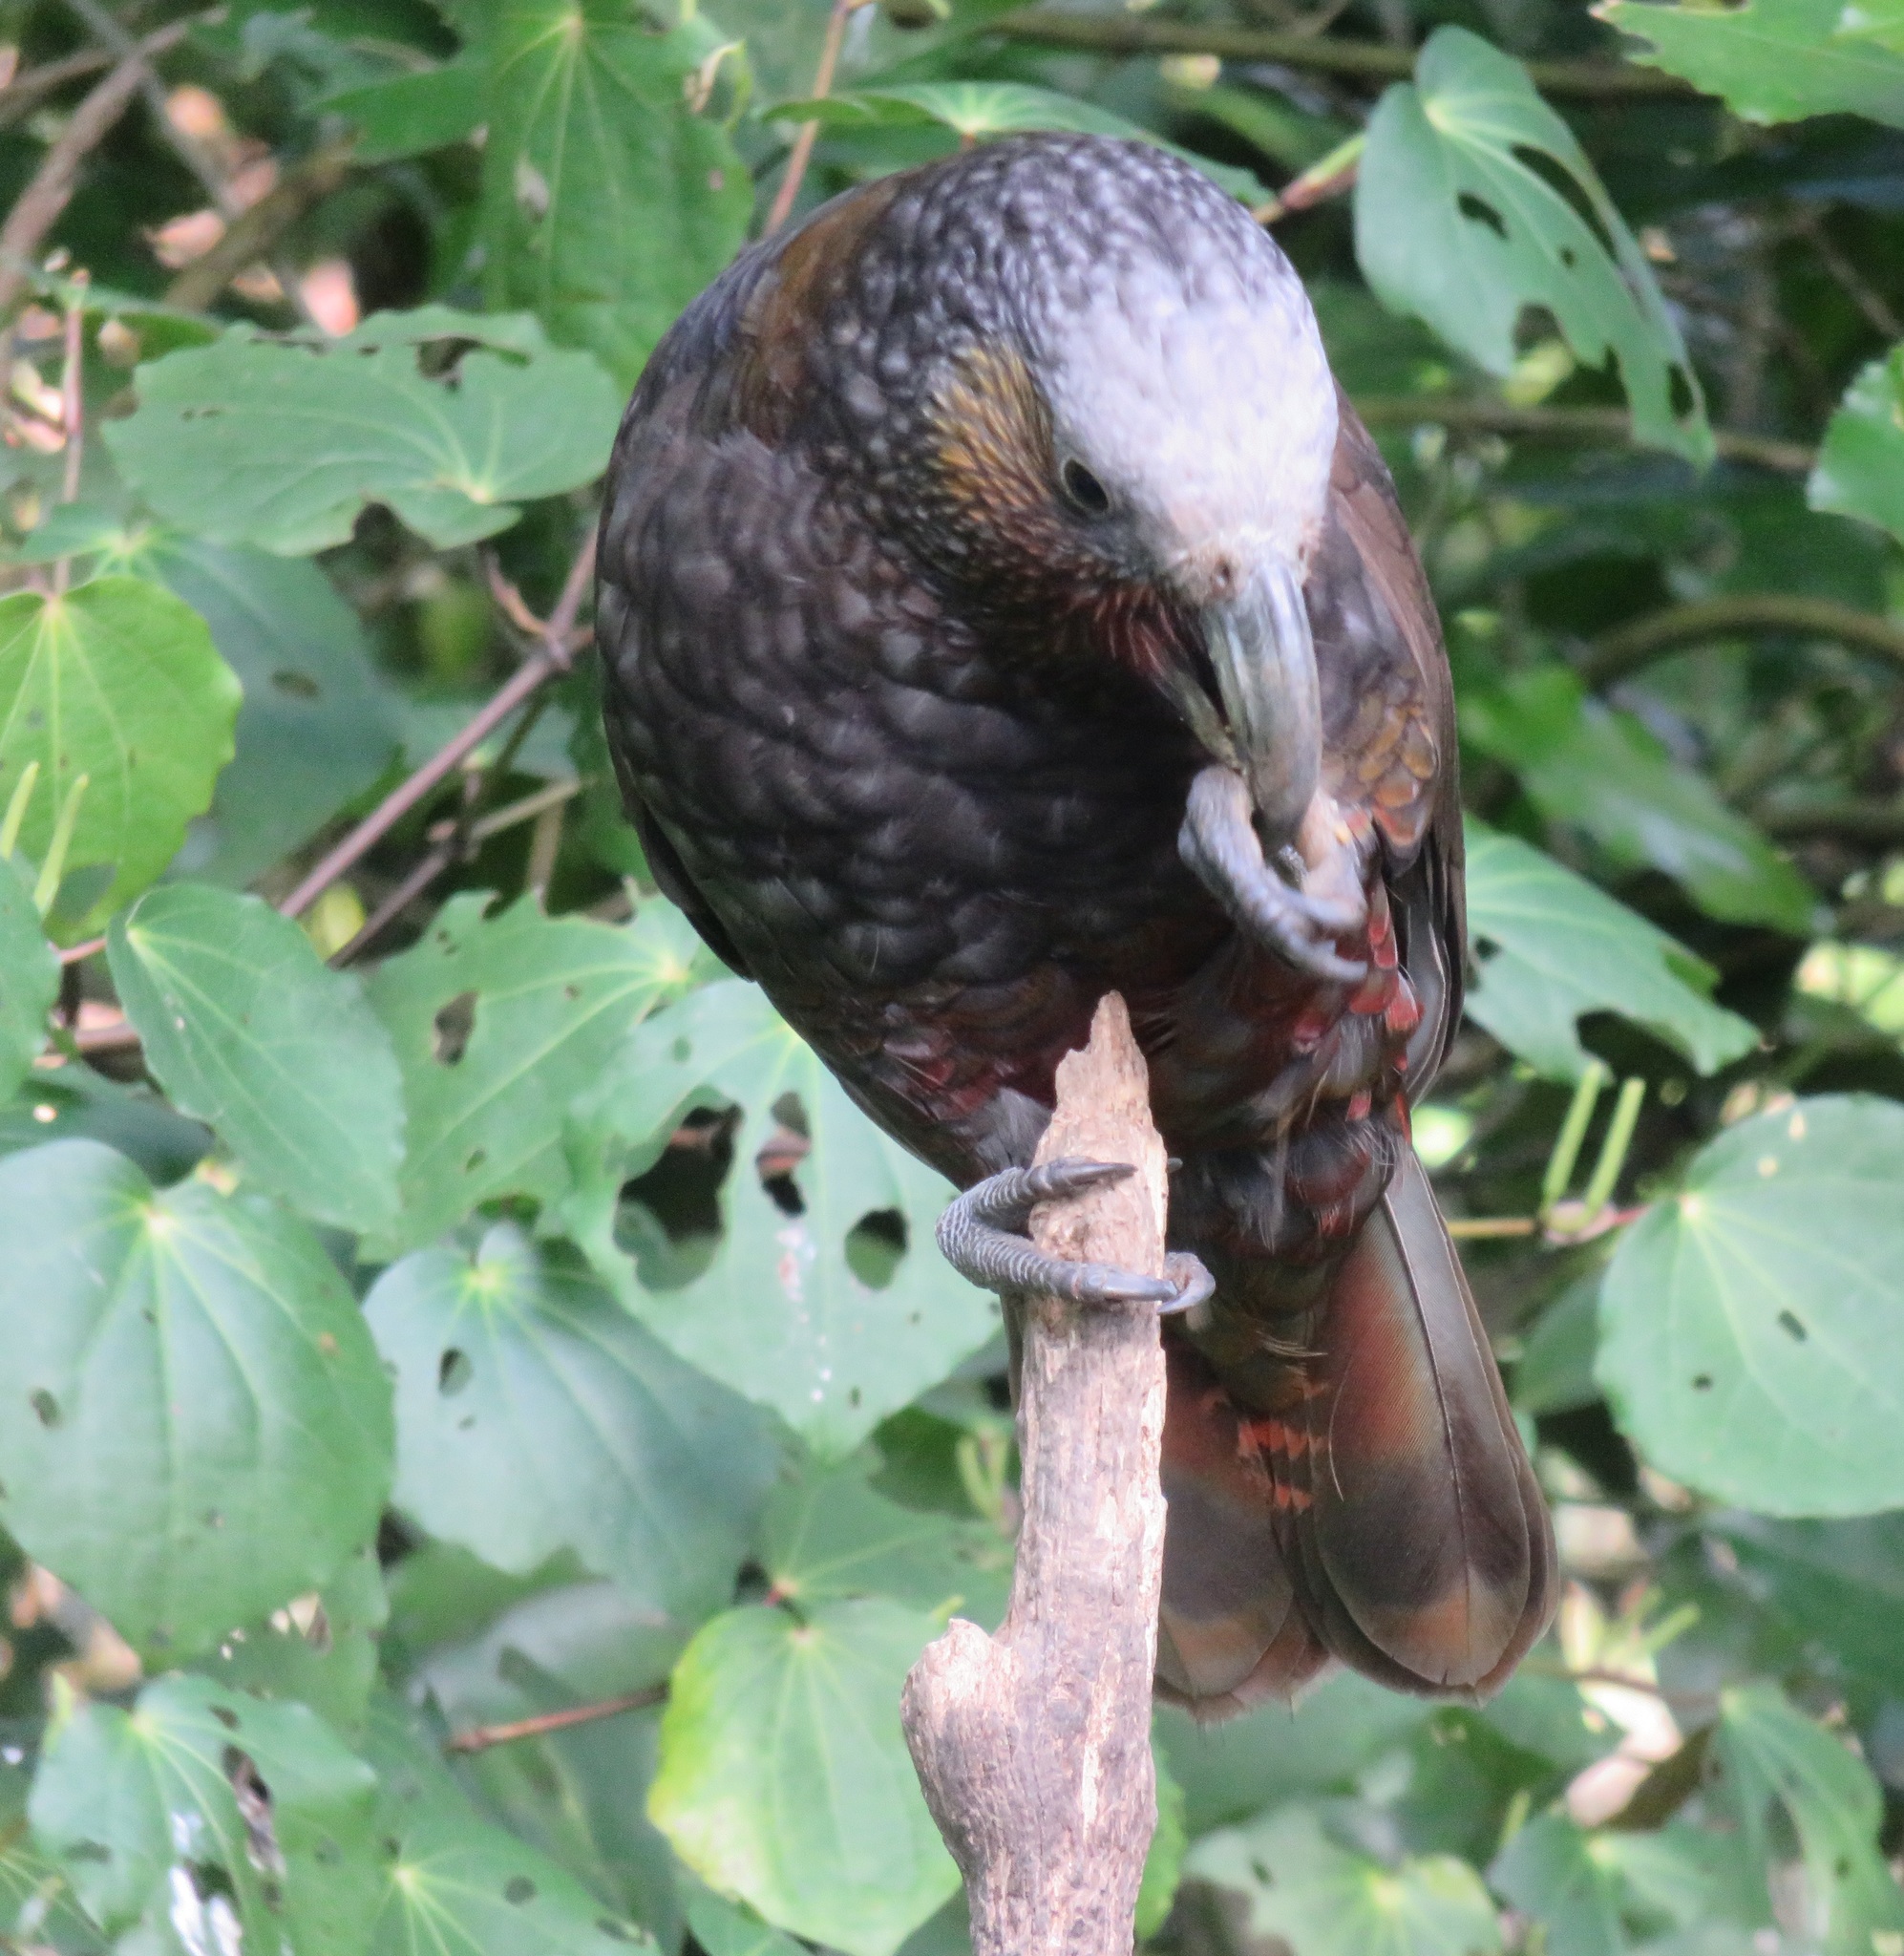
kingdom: Animalia
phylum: Chordata
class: Aves
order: Psittaciformes
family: Psittacidae
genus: Nestor
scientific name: Nestor meridionalis
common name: New zealand kaka
